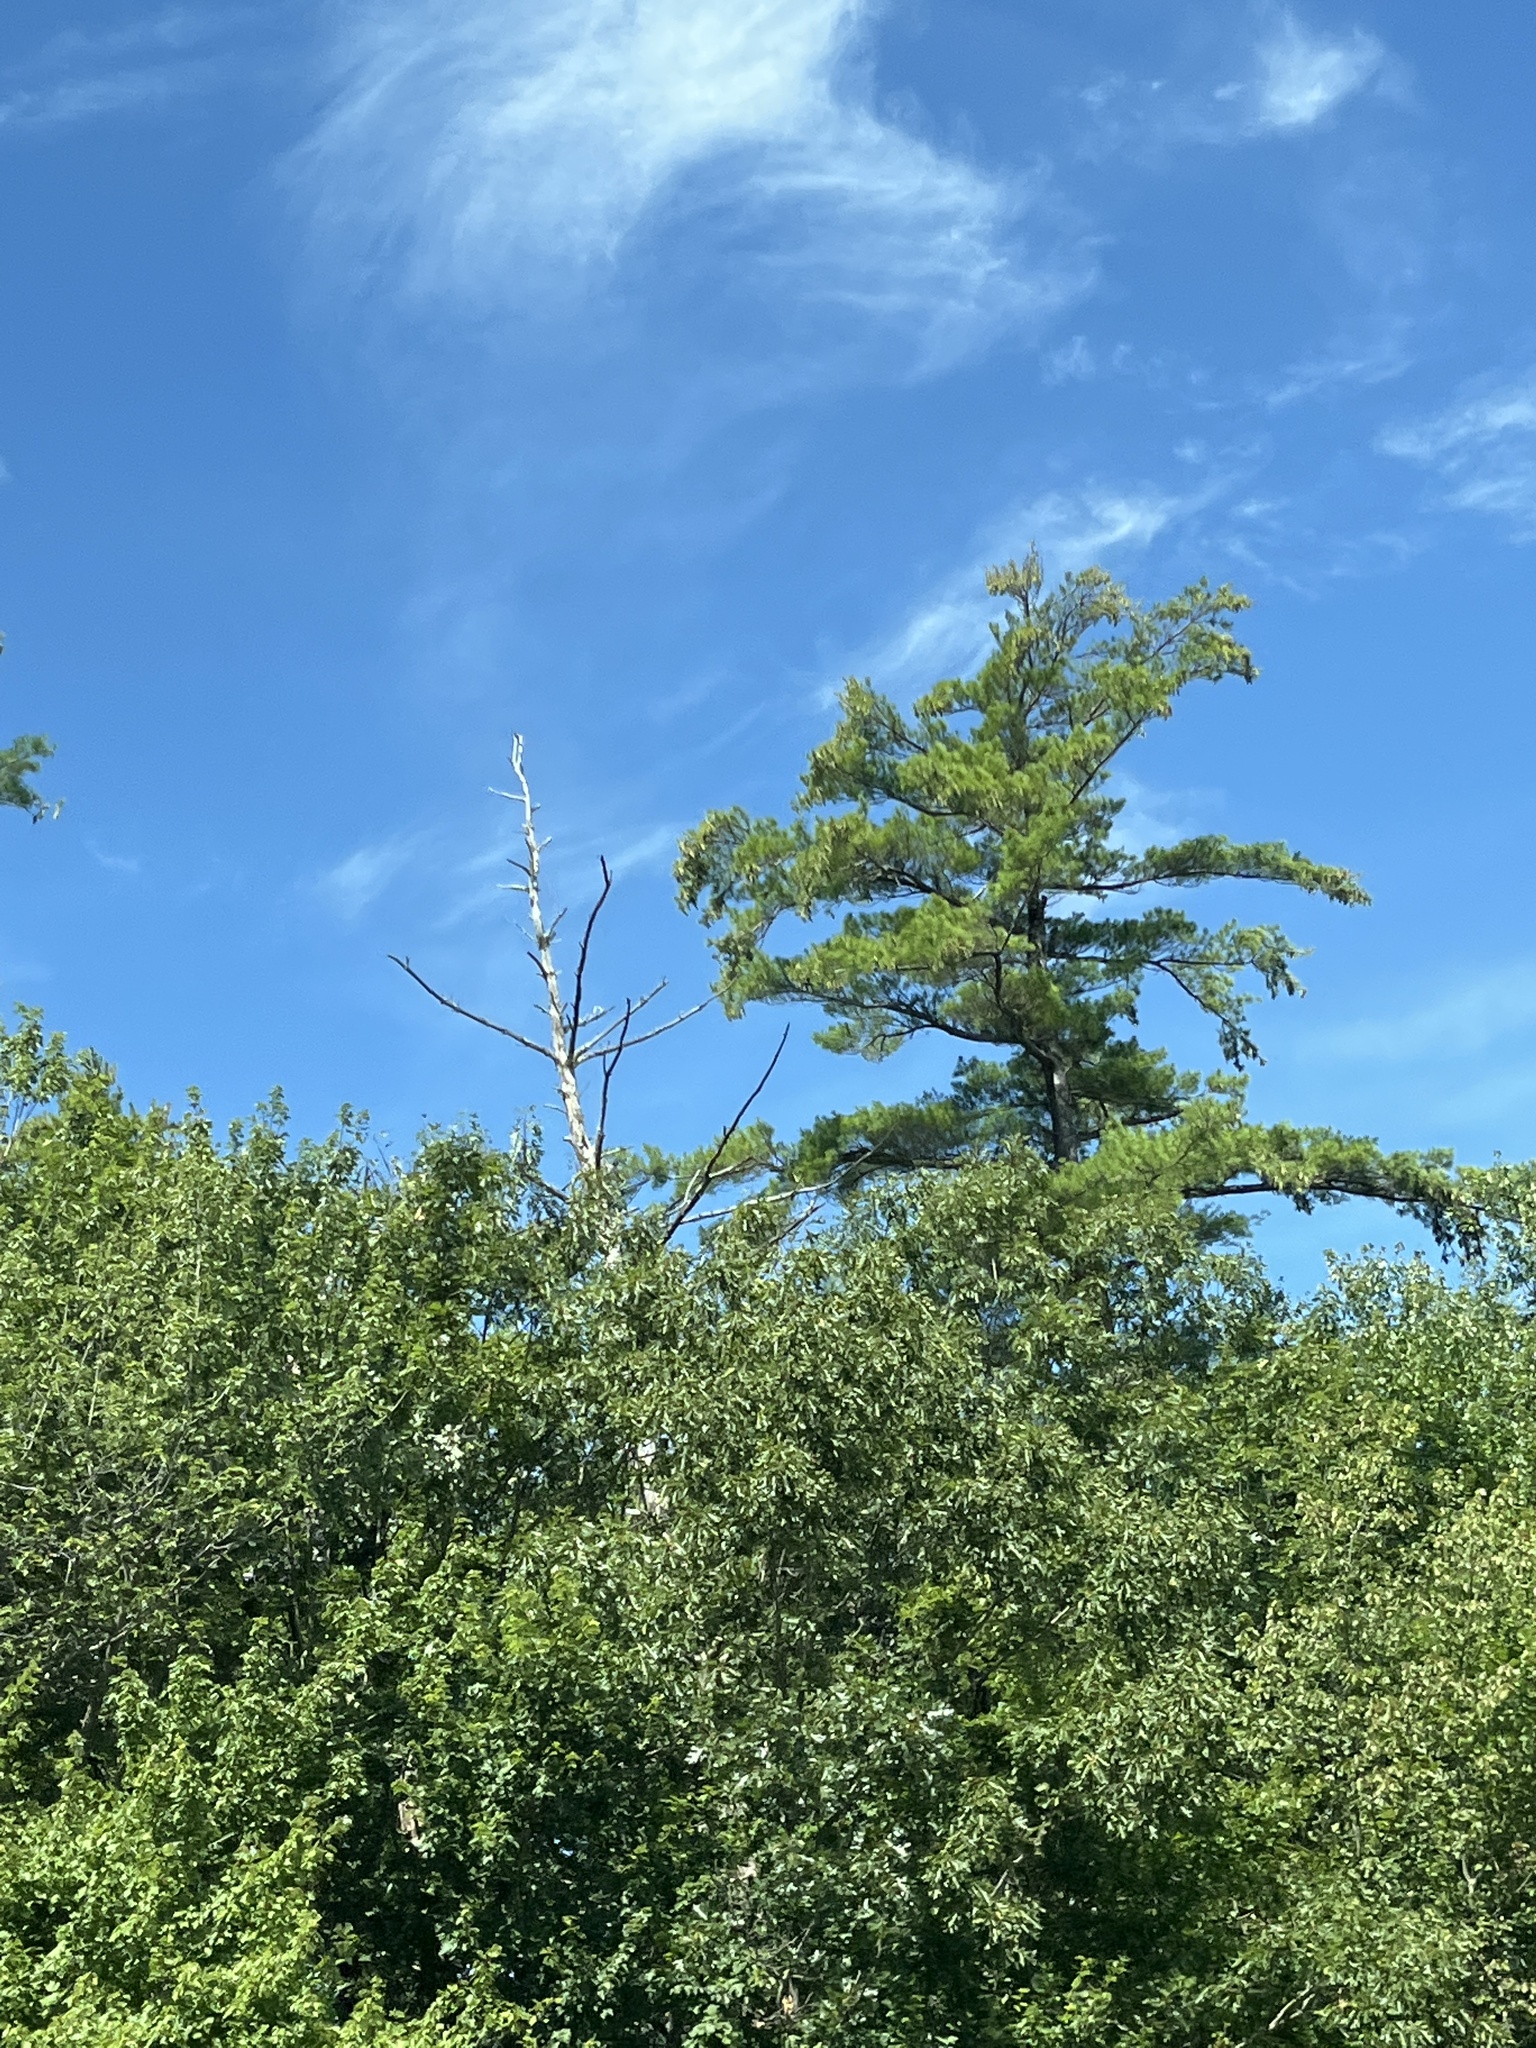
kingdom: Plantae
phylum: Tracheophyta
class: Pinopsida
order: Pinales
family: Pinaceae
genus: Pinus
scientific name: Pinus strobus
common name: Weymouth pine
